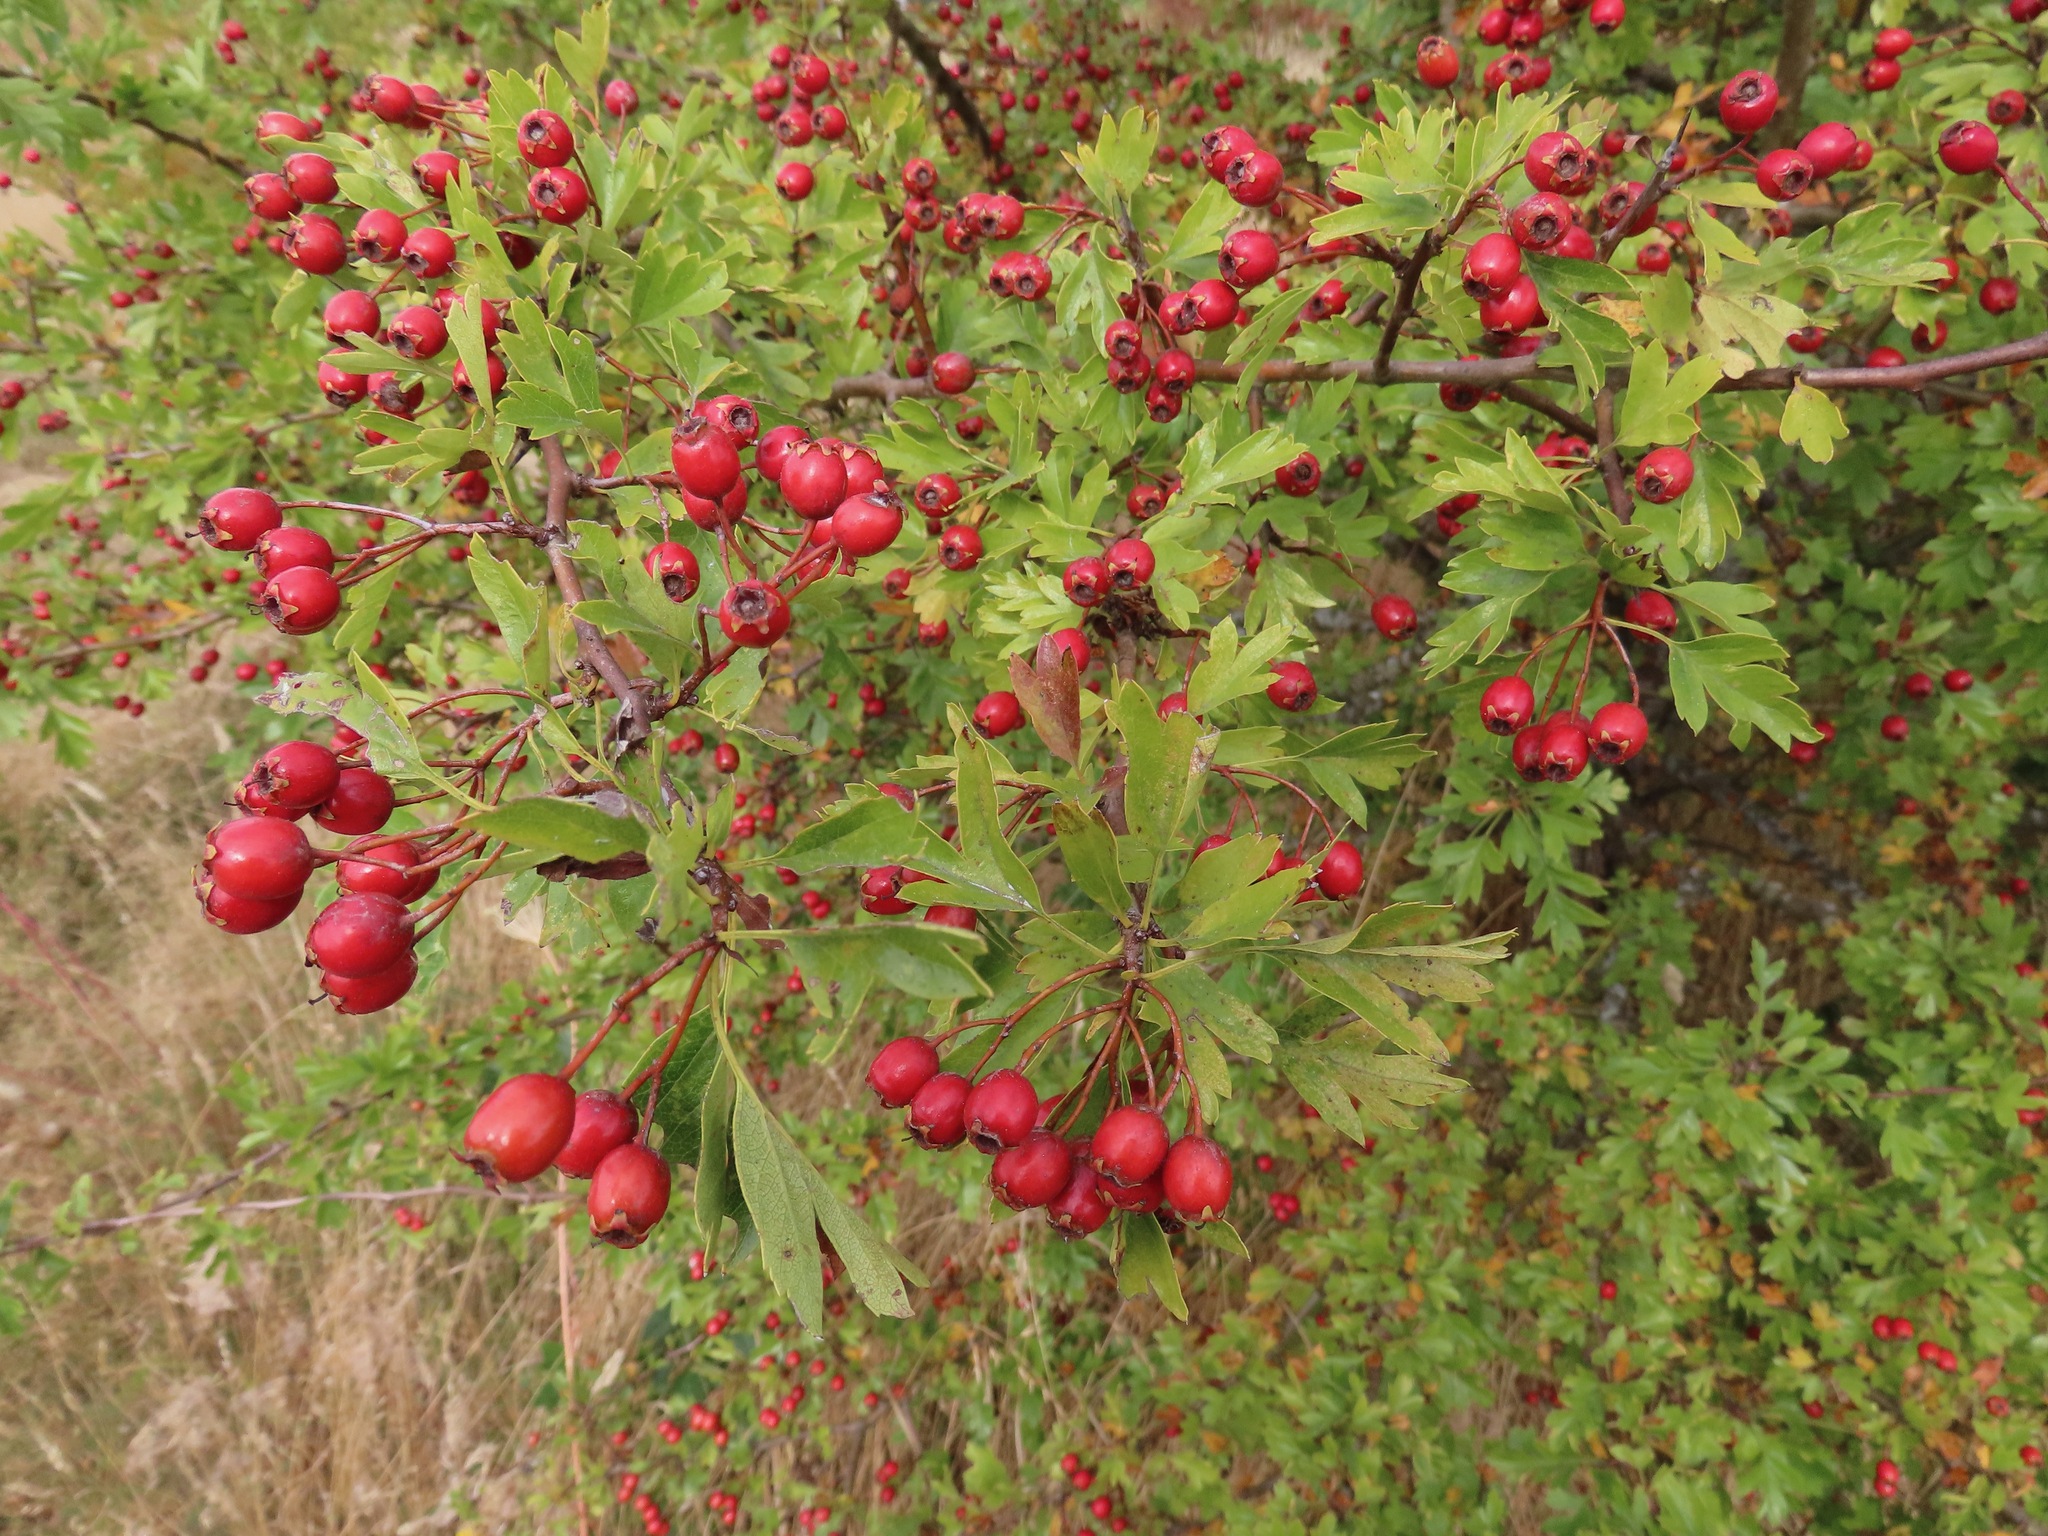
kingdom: Plantae
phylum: Tracheophyta
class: Magnoliopsida
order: Rosales
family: Rosaceae
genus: Crataegus
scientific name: Crataegus monogyna
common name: Hawthorn
